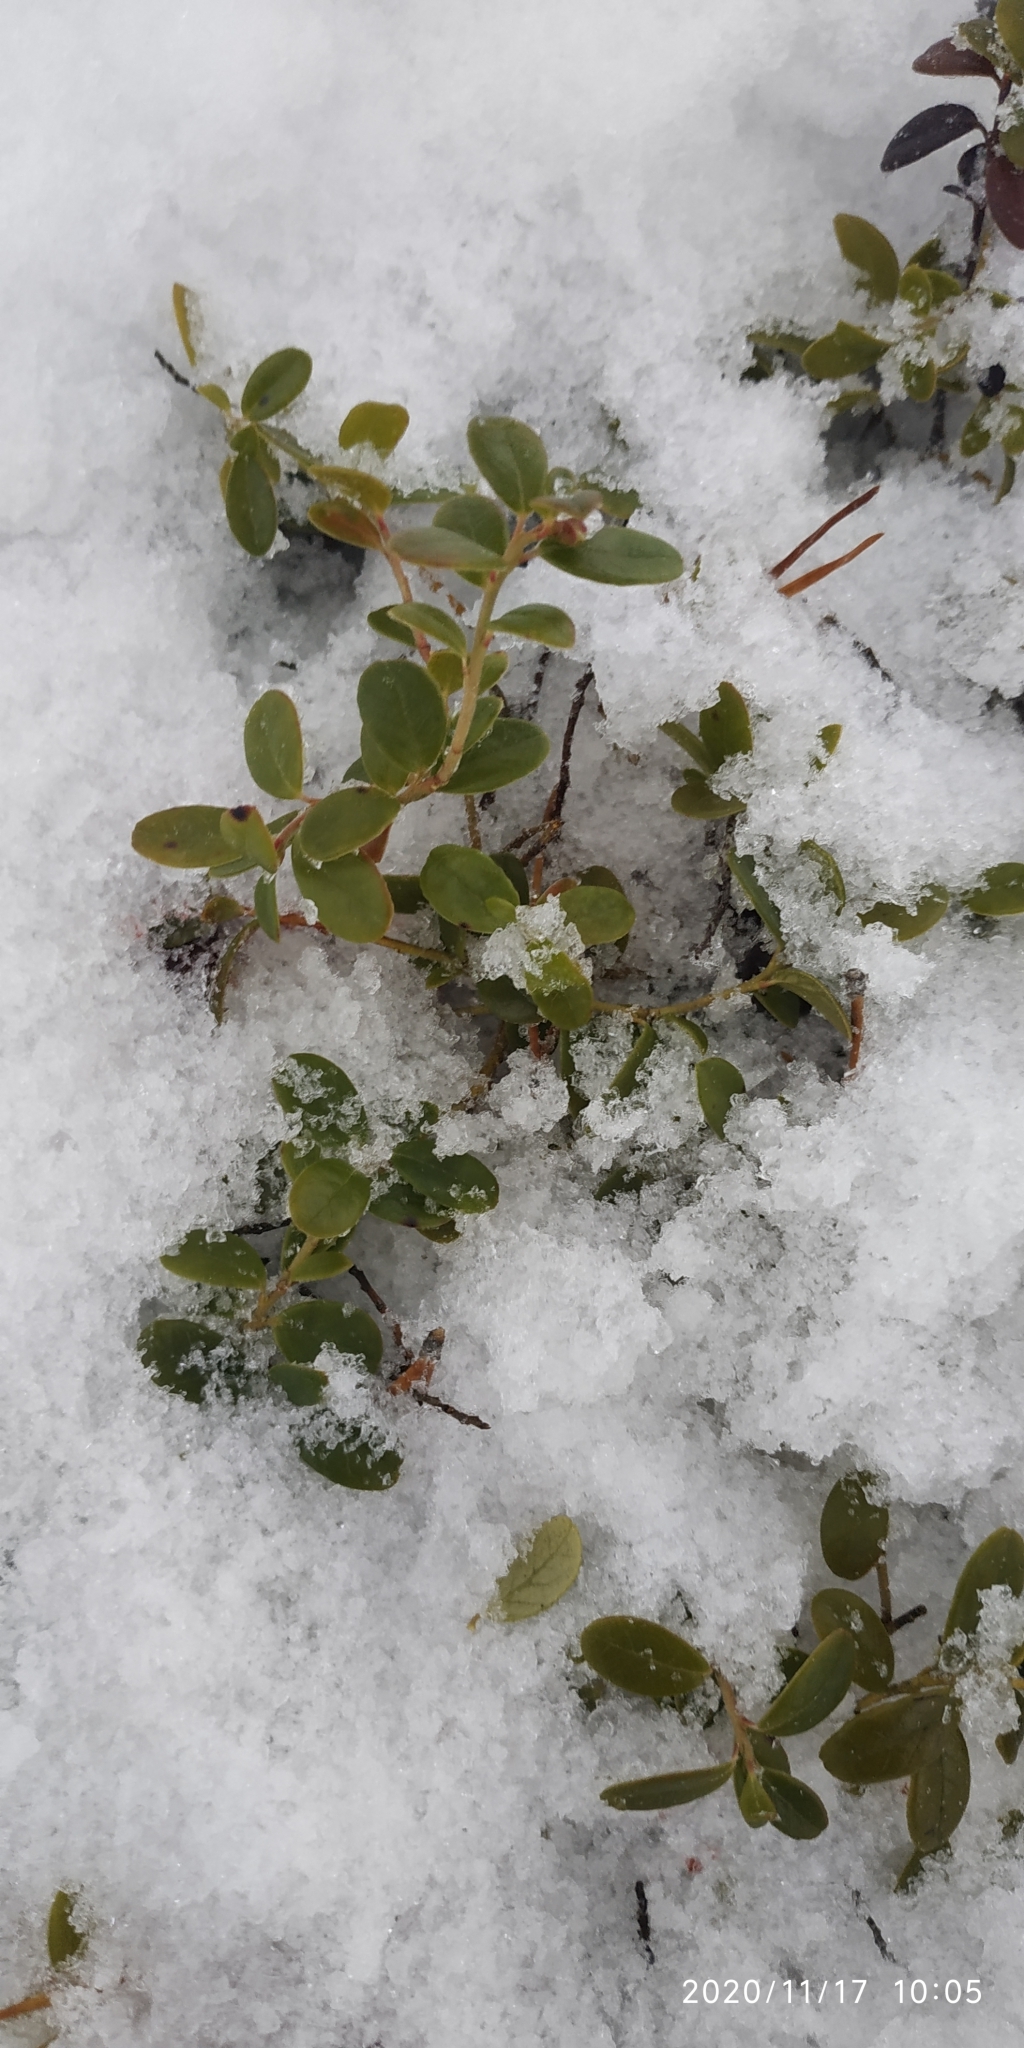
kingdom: Plantae
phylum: Tracheophyta
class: Magnoliopsida
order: Ericales
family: Ericaceae
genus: Vaccinium
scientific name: Vaccinium vitis-idaea
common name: Cowberry
